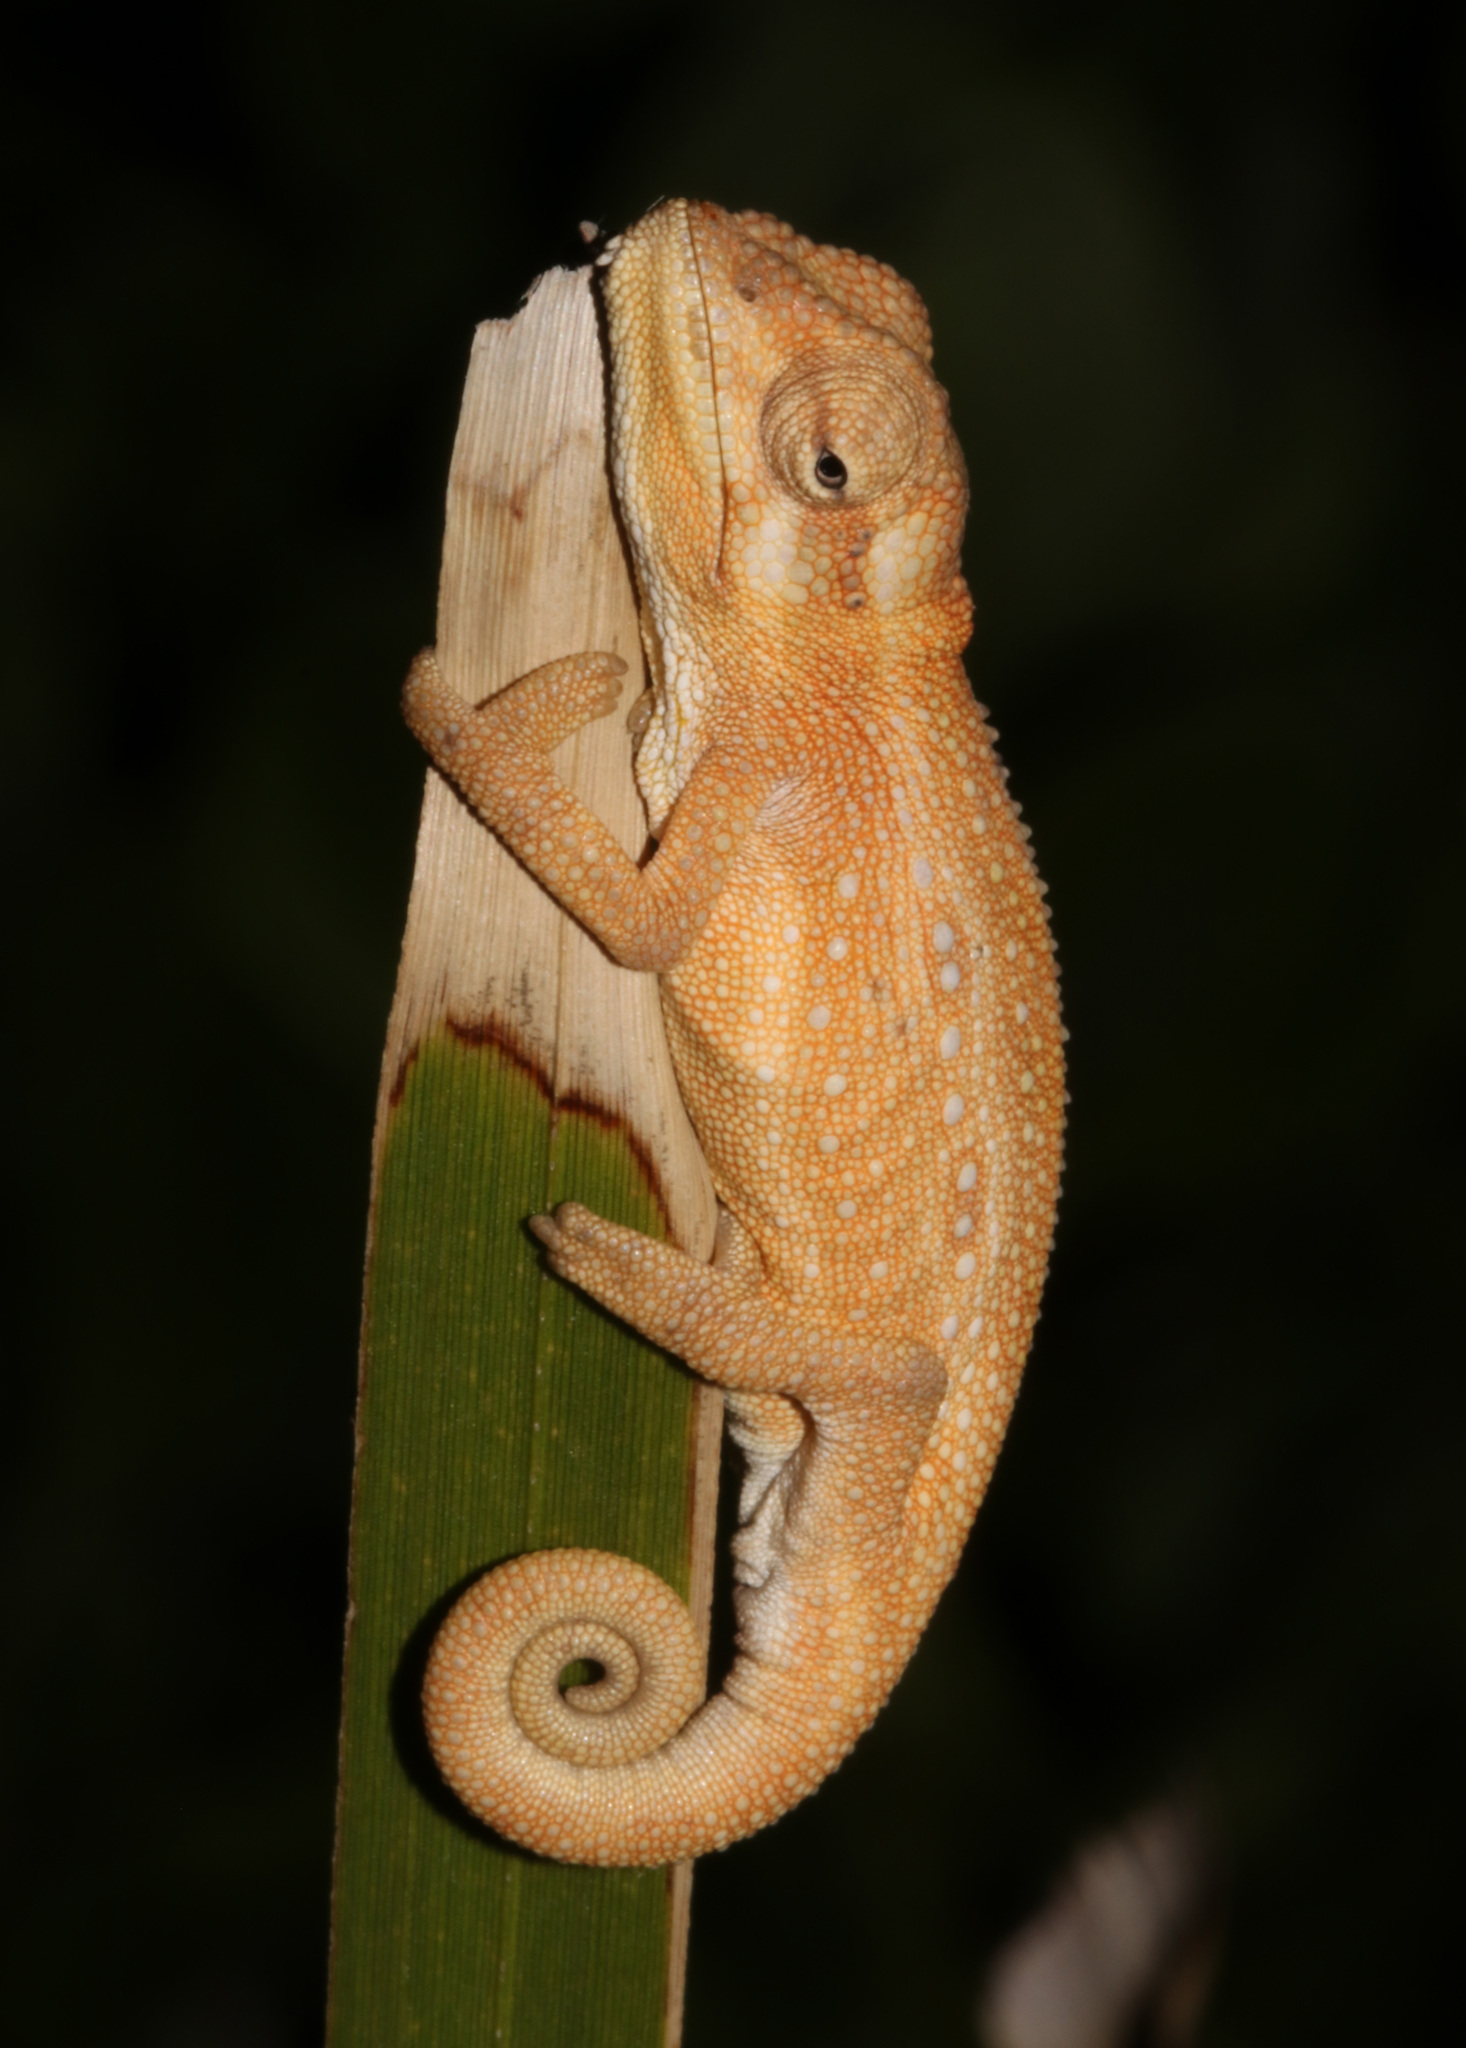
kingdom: Animalia
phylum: Chordata
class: Squamata
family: Chamaeleonidae
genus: Bradypodion
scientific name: Bradypodion pumilum
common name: Cape dwarf chameleon
